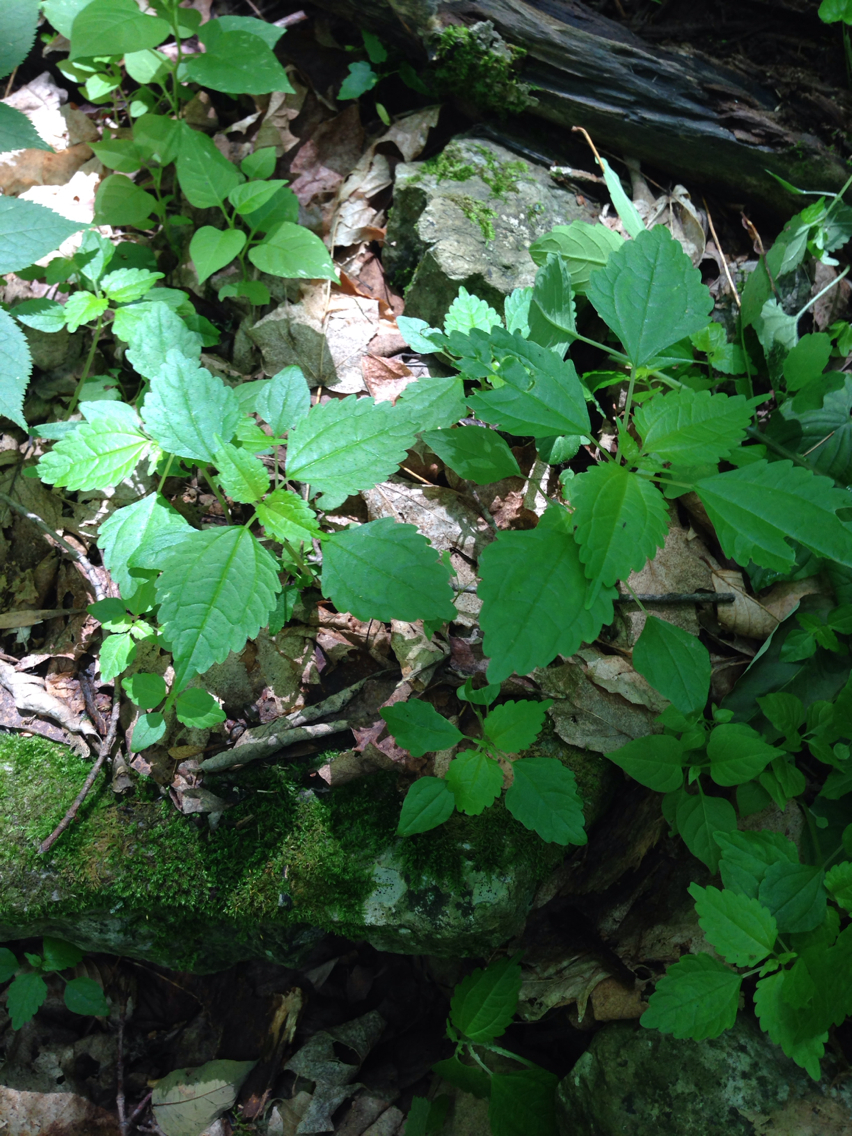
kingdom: Plantae
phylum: Tracheophyta
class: Magnoliopsida
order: Rosales
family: Urticaceae
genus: Pilea
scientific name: Pilea pumila
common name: Clearweed
